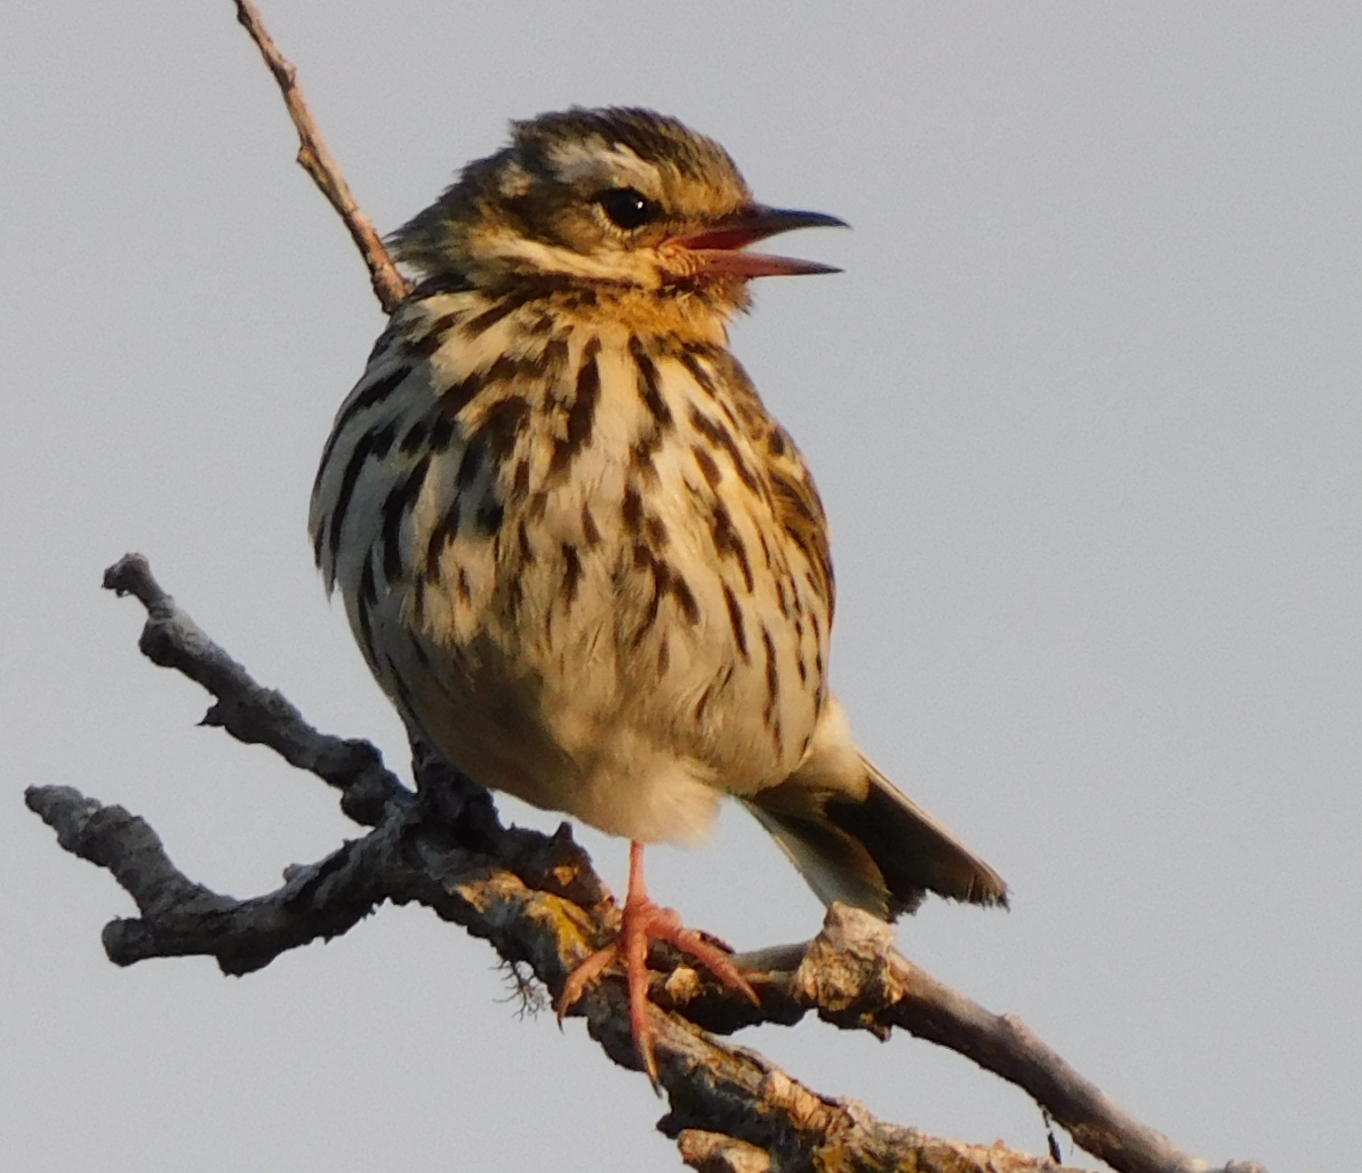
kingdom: Animalia
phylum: Chordata
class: Aves
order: Passeriformes
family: Motacillidae
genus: Anthus
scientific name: Anthus hodgsoni
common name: Olive-backed pipit
